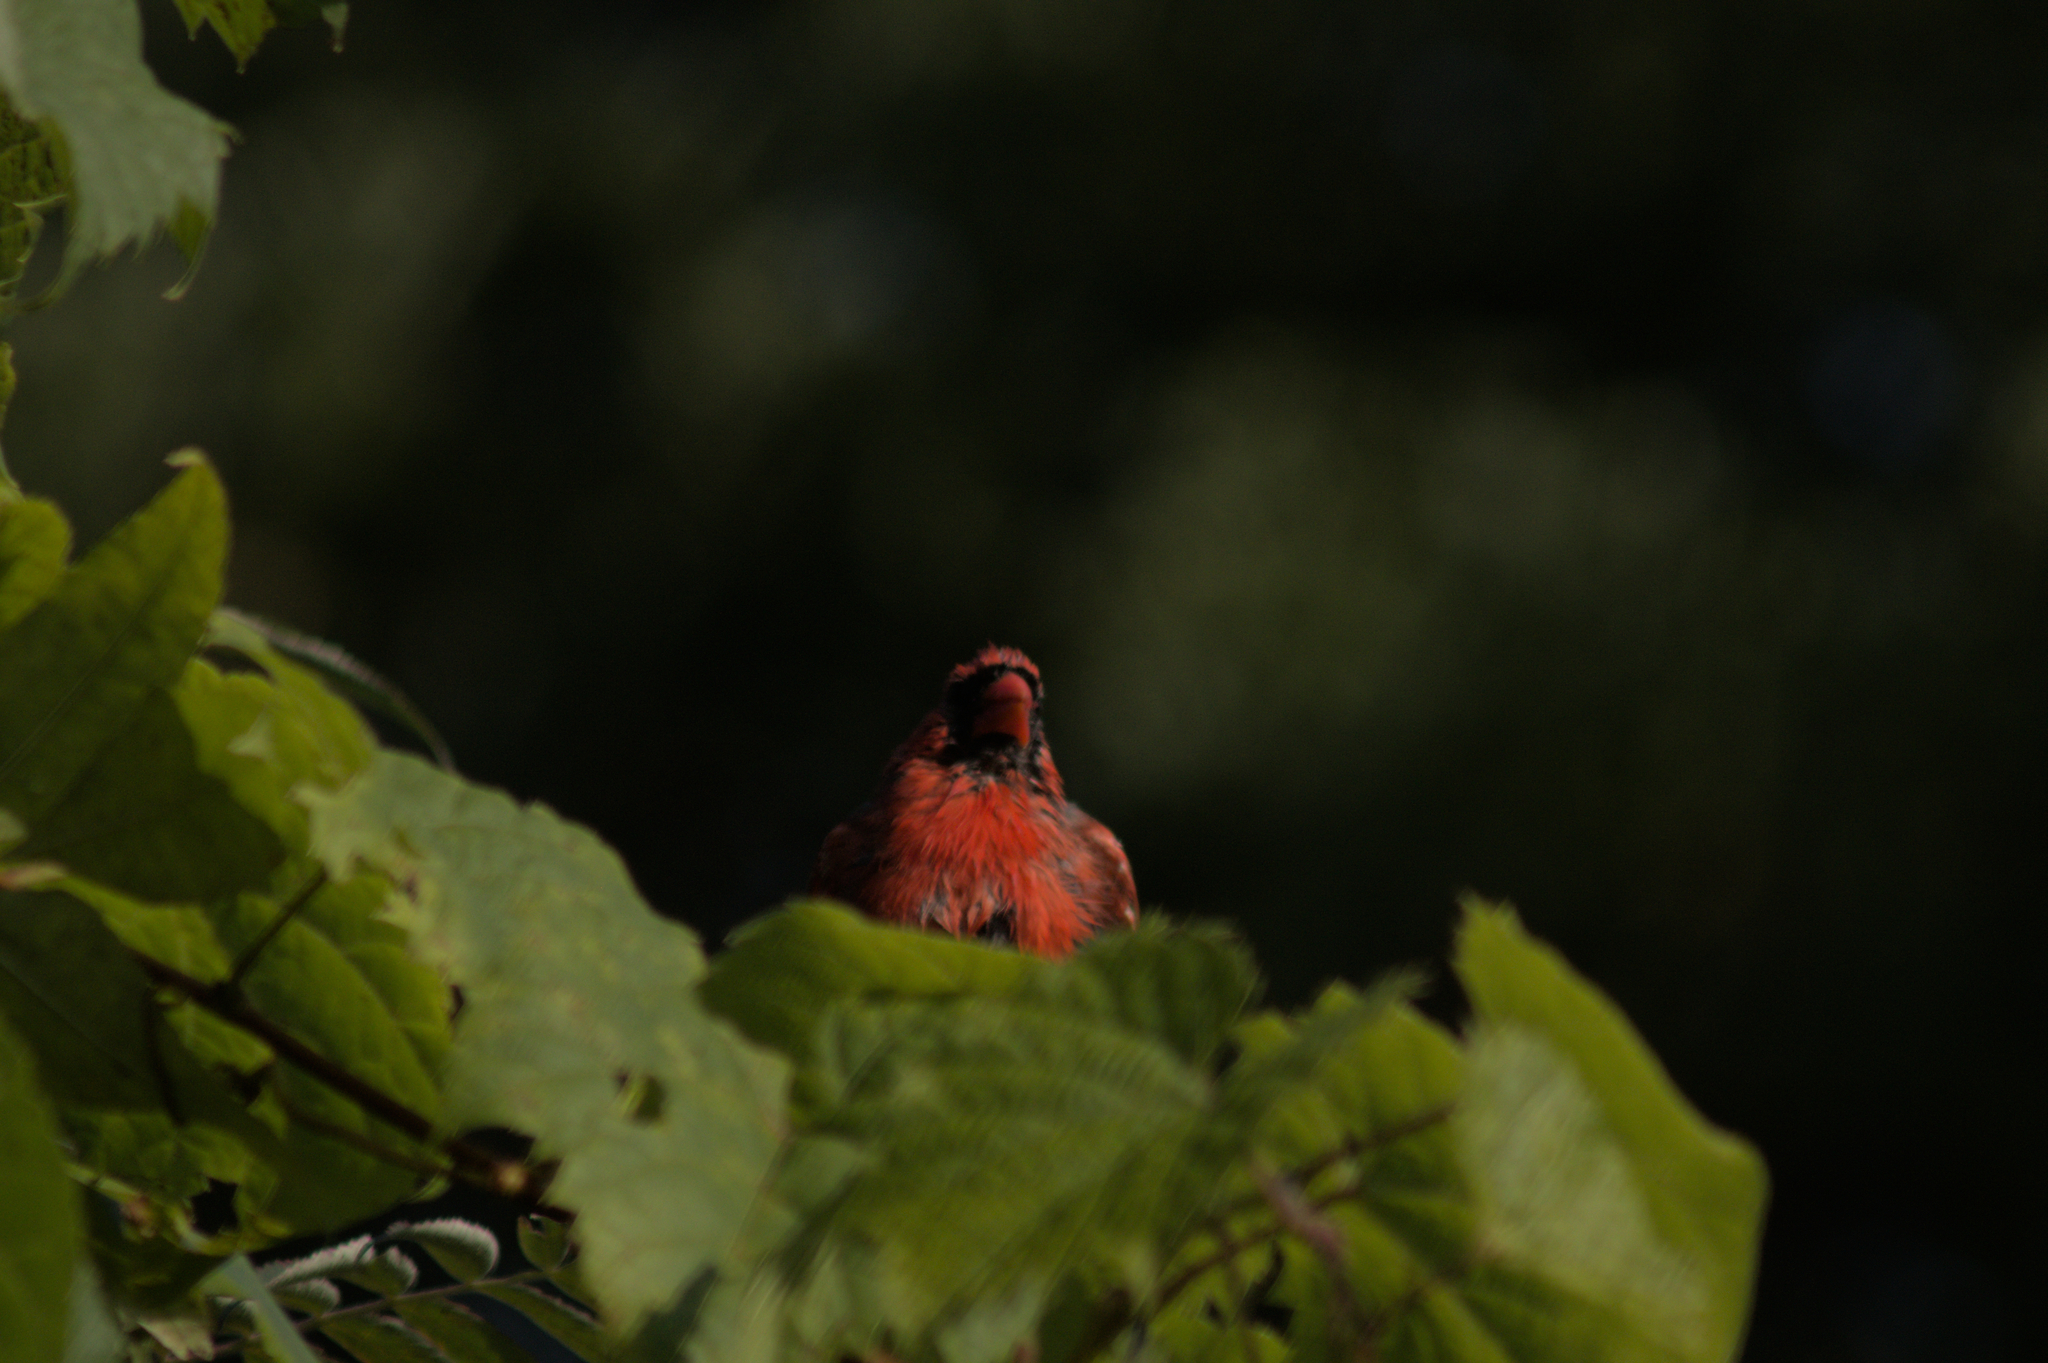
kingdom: Animalia
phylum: Chordata
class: Aves
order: Passeriformes
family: Cardinalidae
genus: Cardinalis
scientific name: Cardinalis cardinalis
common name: Northern cardinal
